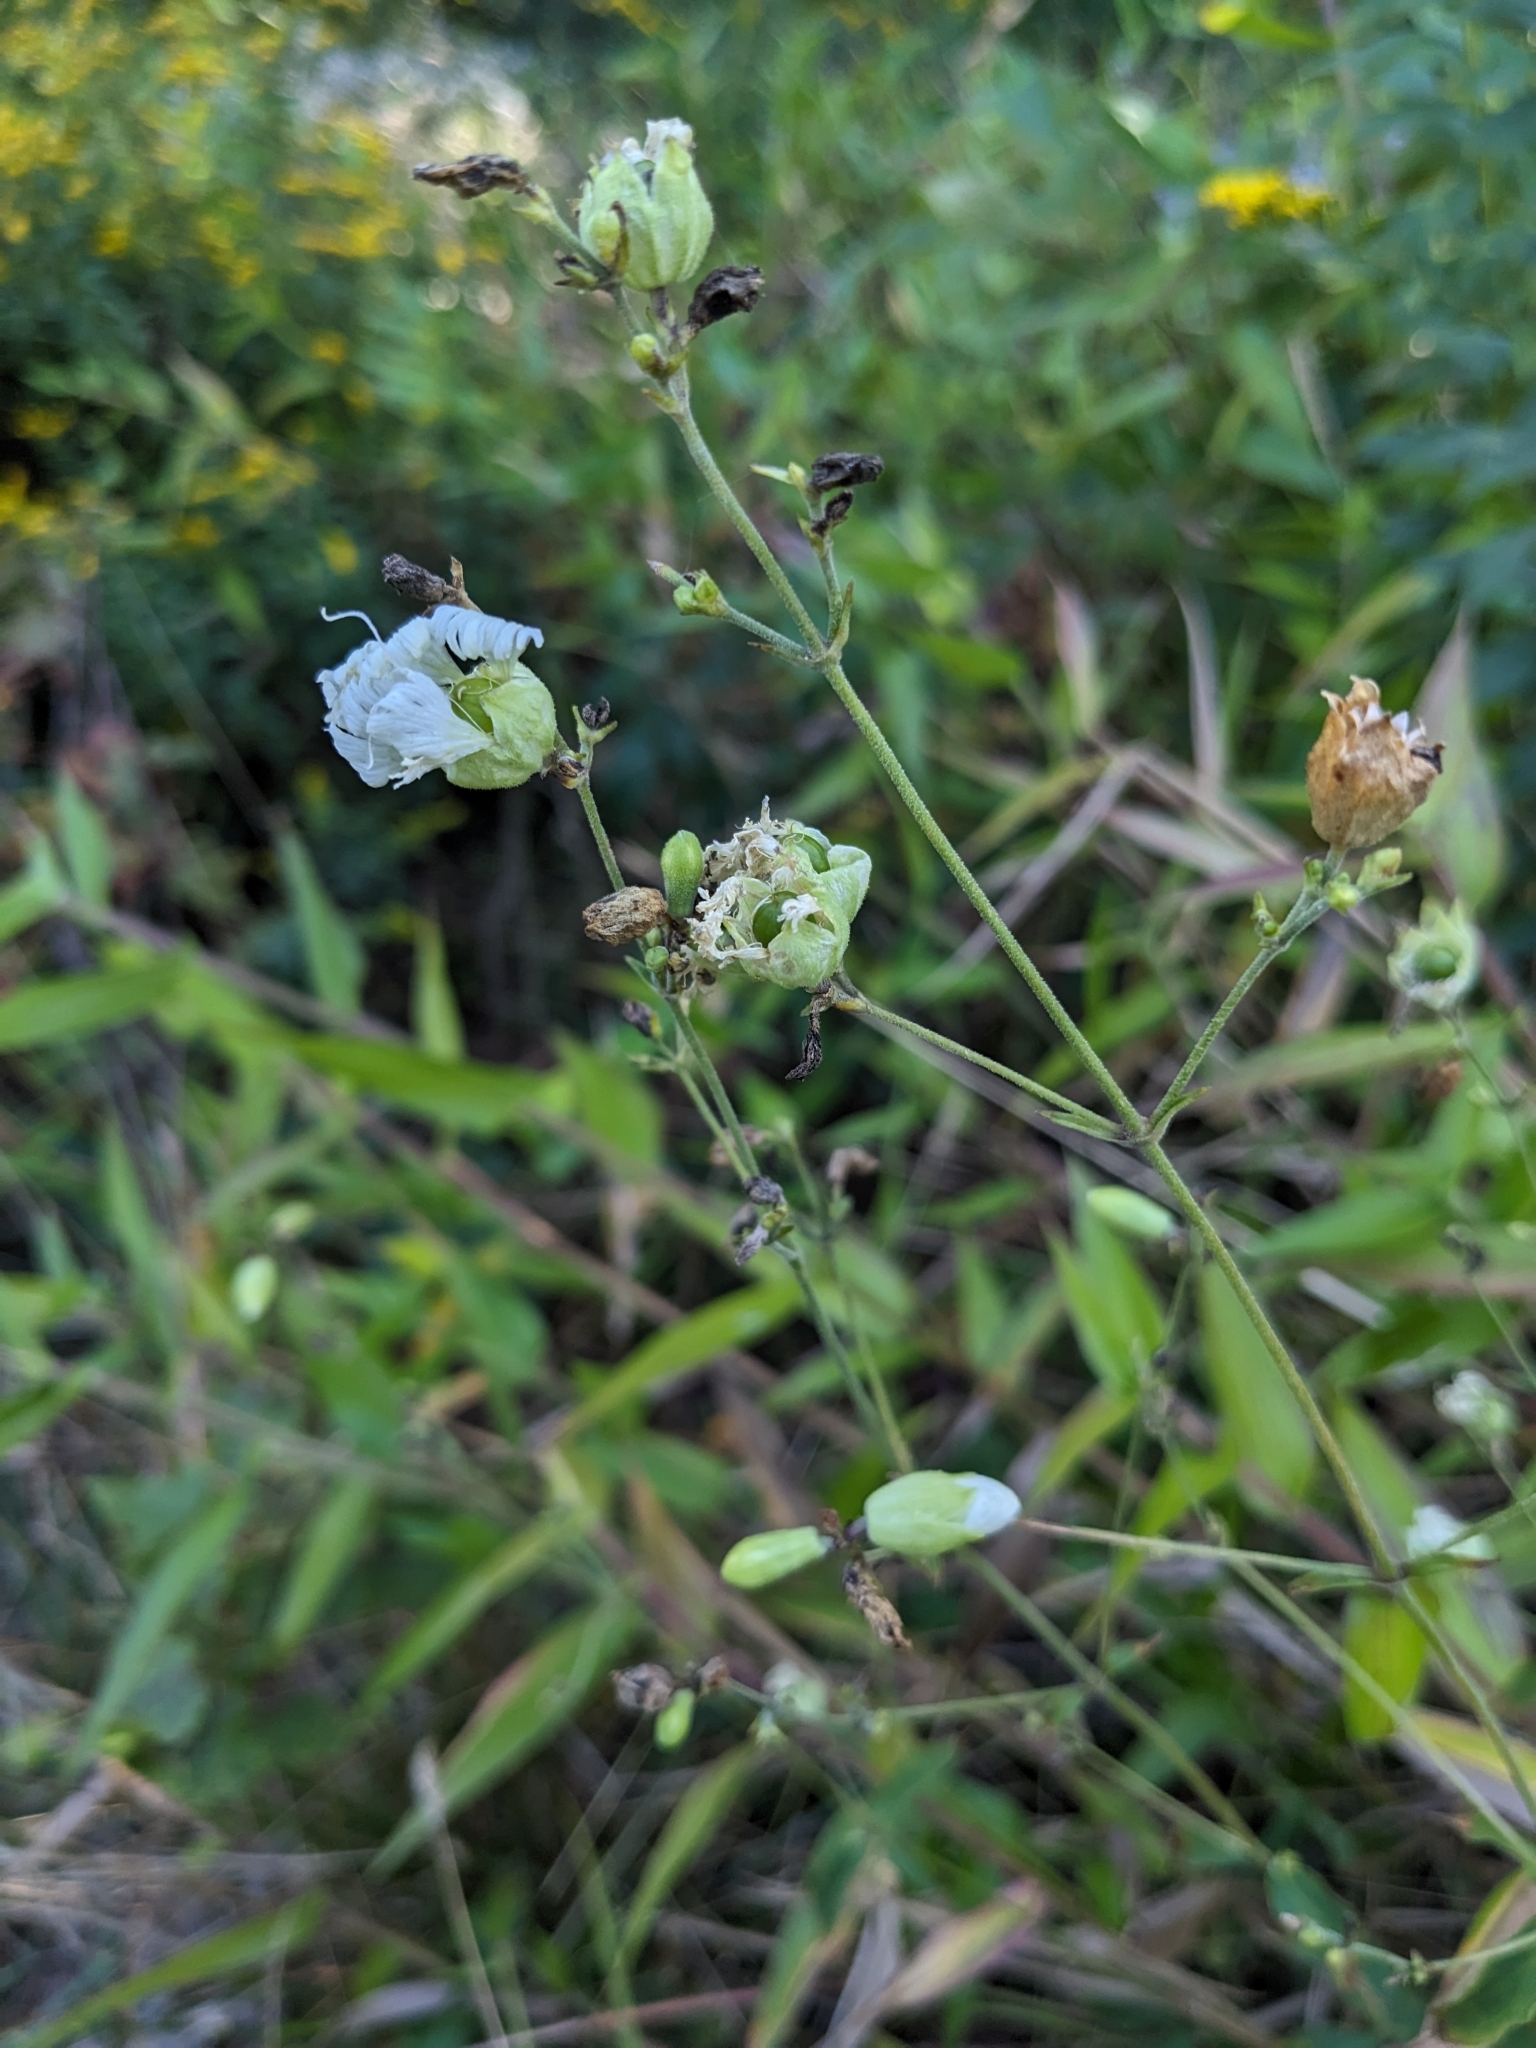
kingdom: Plantae
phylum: Tracheophyta
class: Magnoliopsida
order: Caryophyllales
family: Caryophyllaceae
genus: Silene
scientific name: Silene stellata
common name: Starry campion
